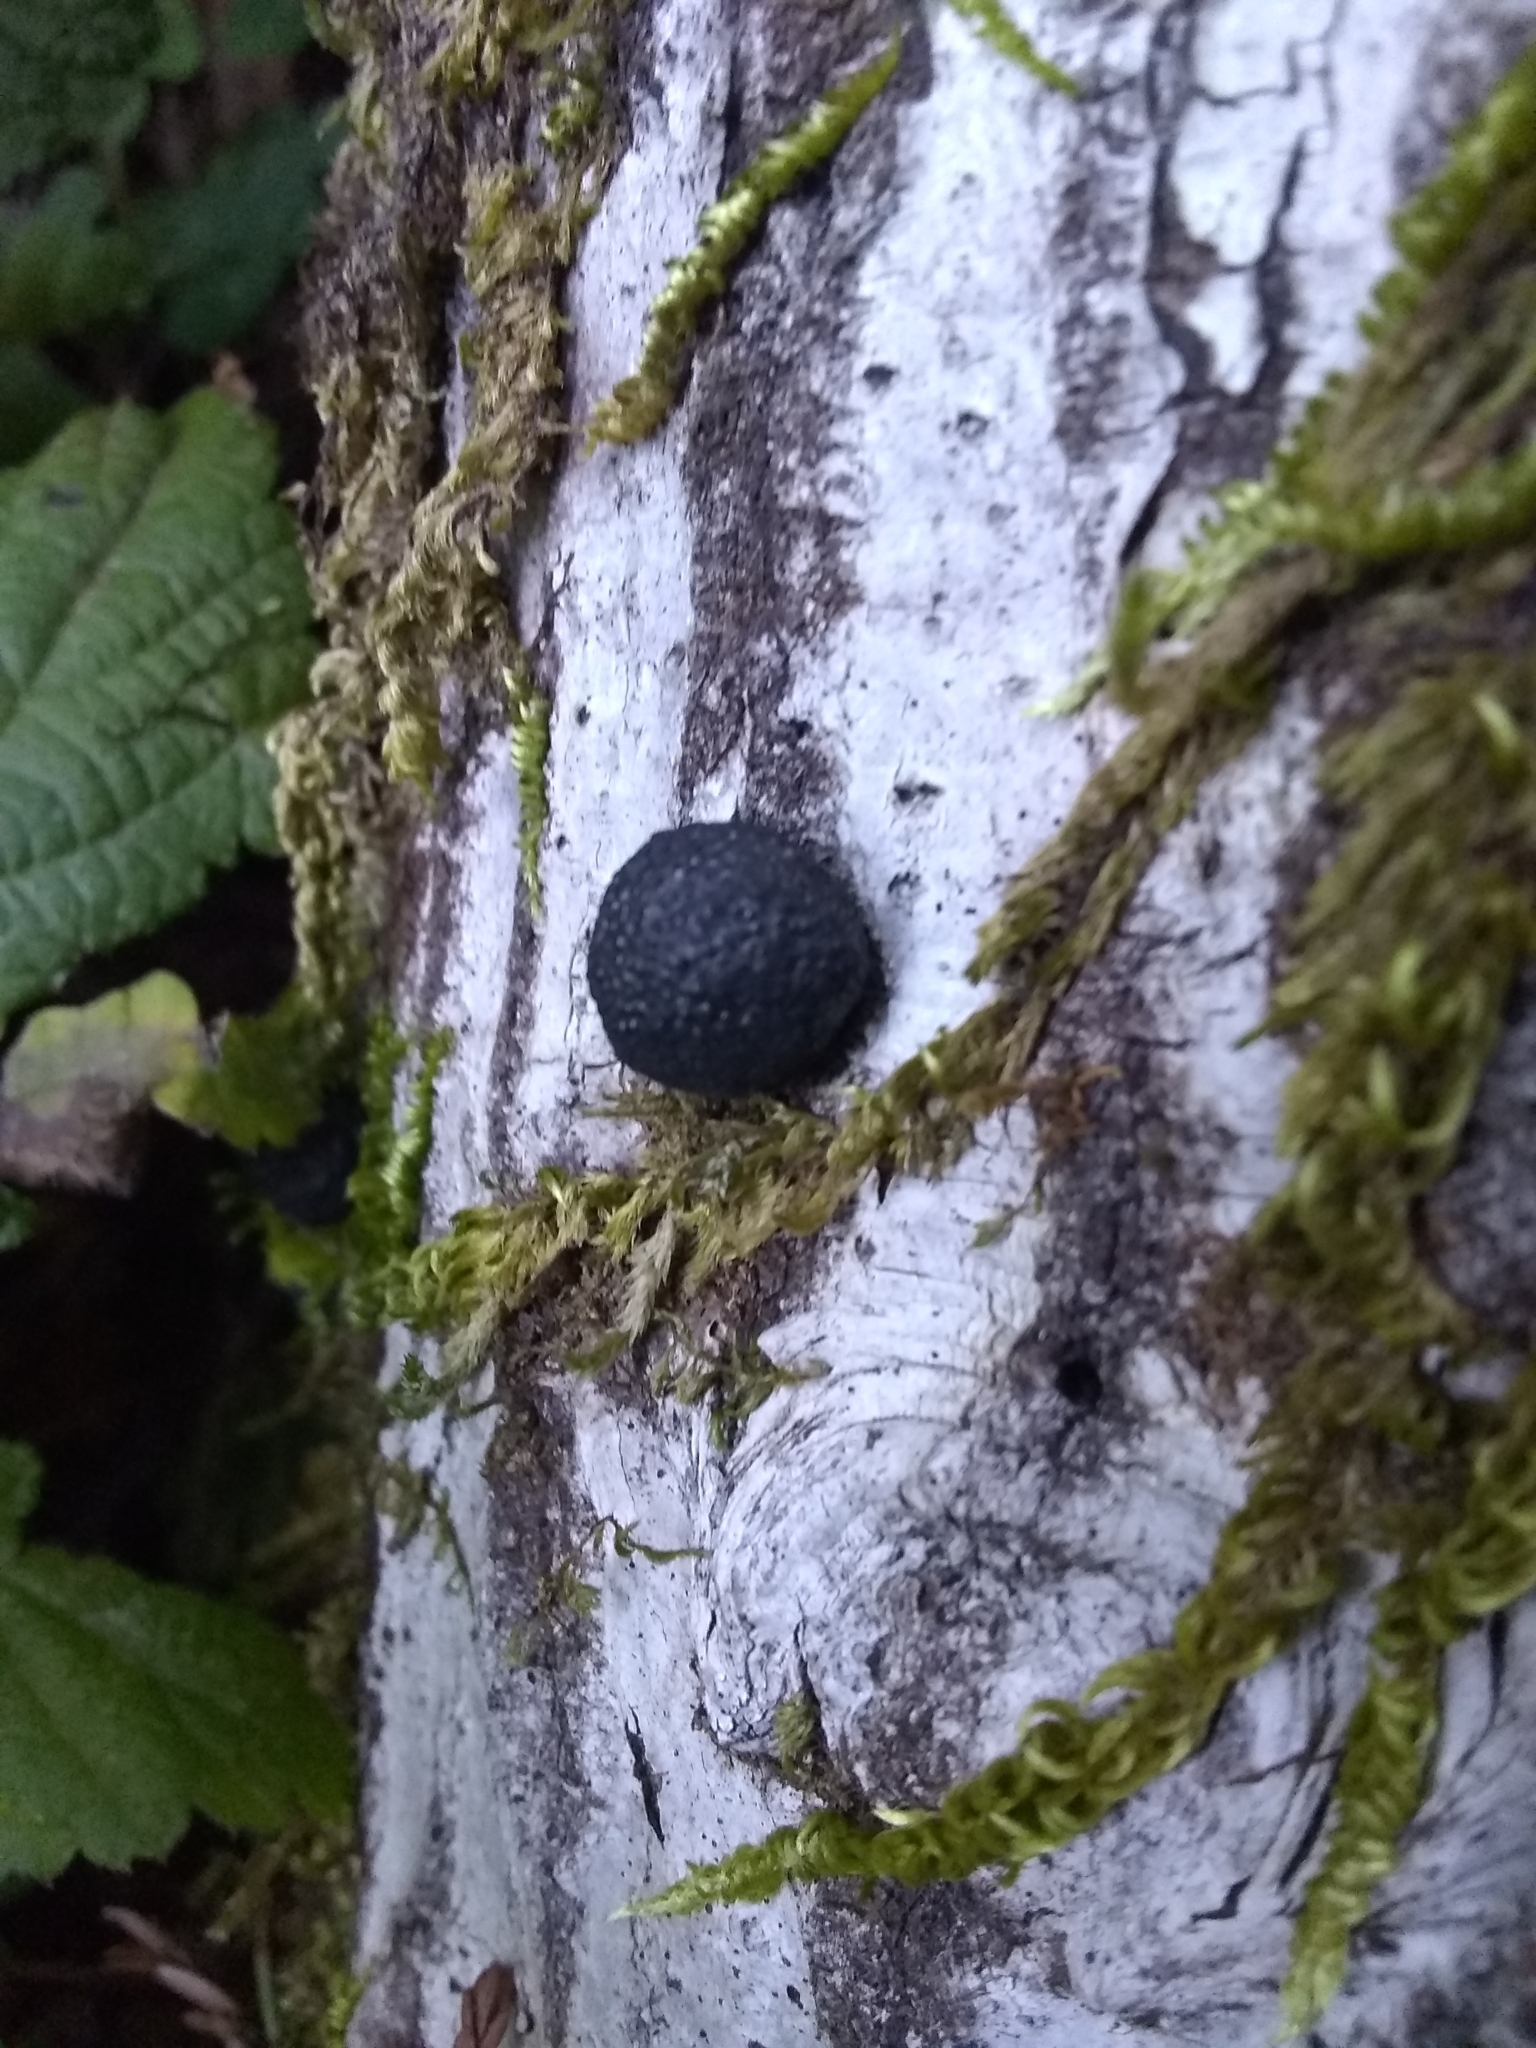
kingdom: Fungi
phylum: Ascomycota
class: Sordariomycetes
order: Xylariales
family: Hypoxylaceae
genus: Annulohypoxylon
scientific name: Annulohypoxylon thouarsianum
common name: Cramp balls
